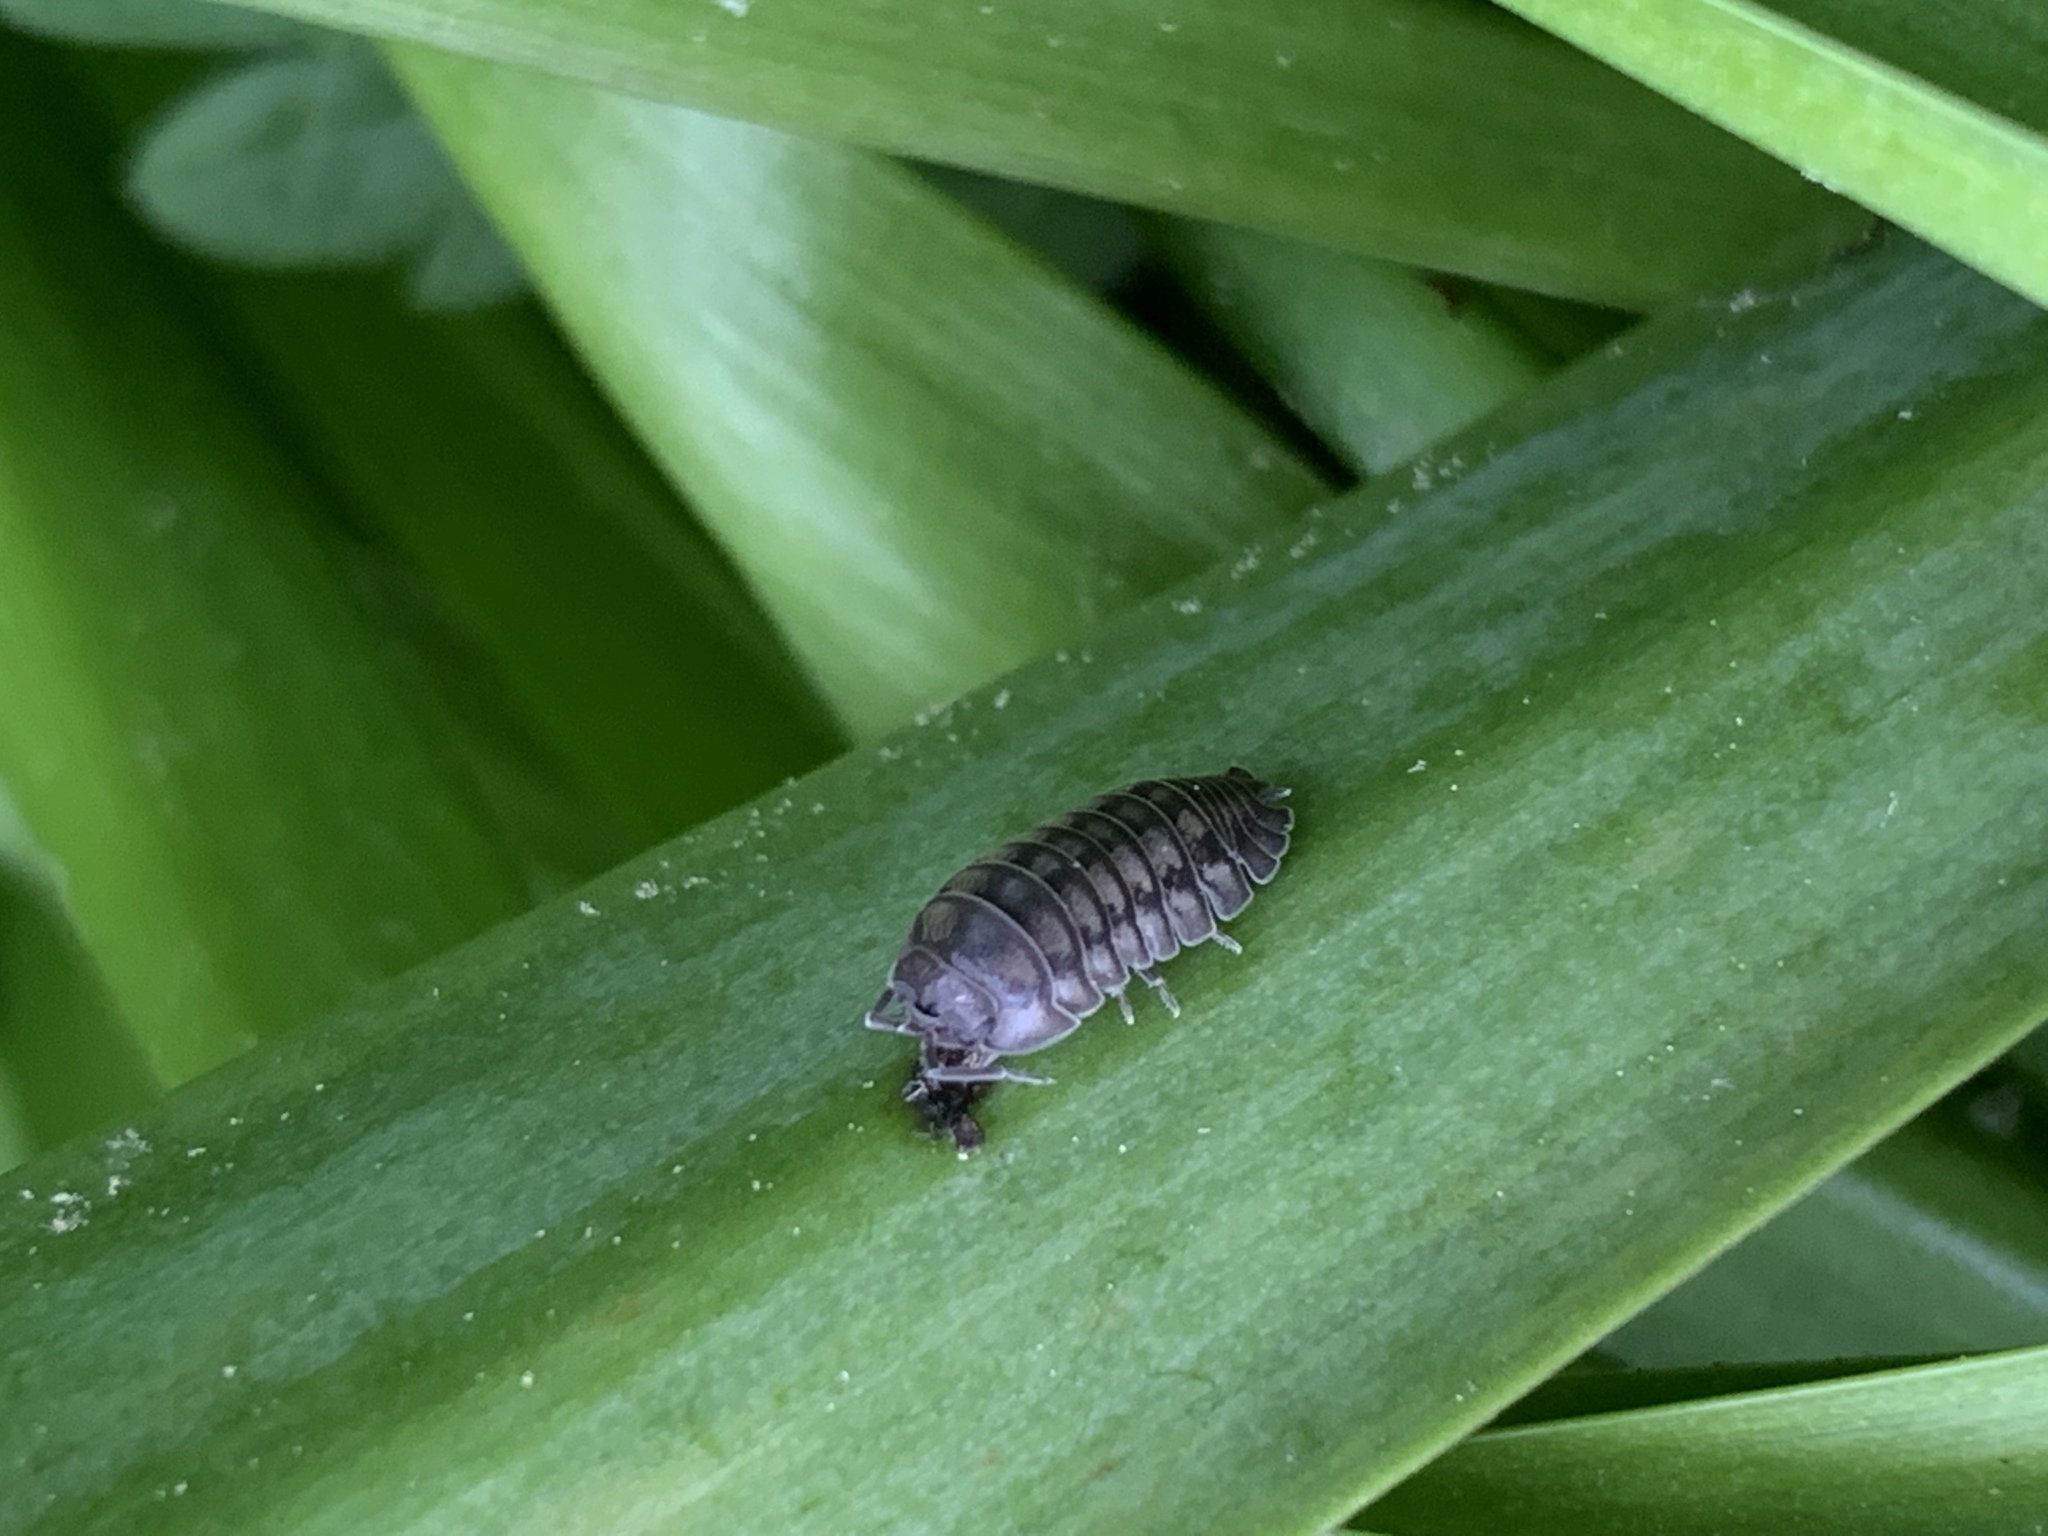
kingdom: Animalia
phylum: Arthropoda
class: Malacostraca
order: Isopoda
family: Armadillidiidae
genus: Armadillidium
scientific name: Armadillidium nasatum
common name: Isopod
